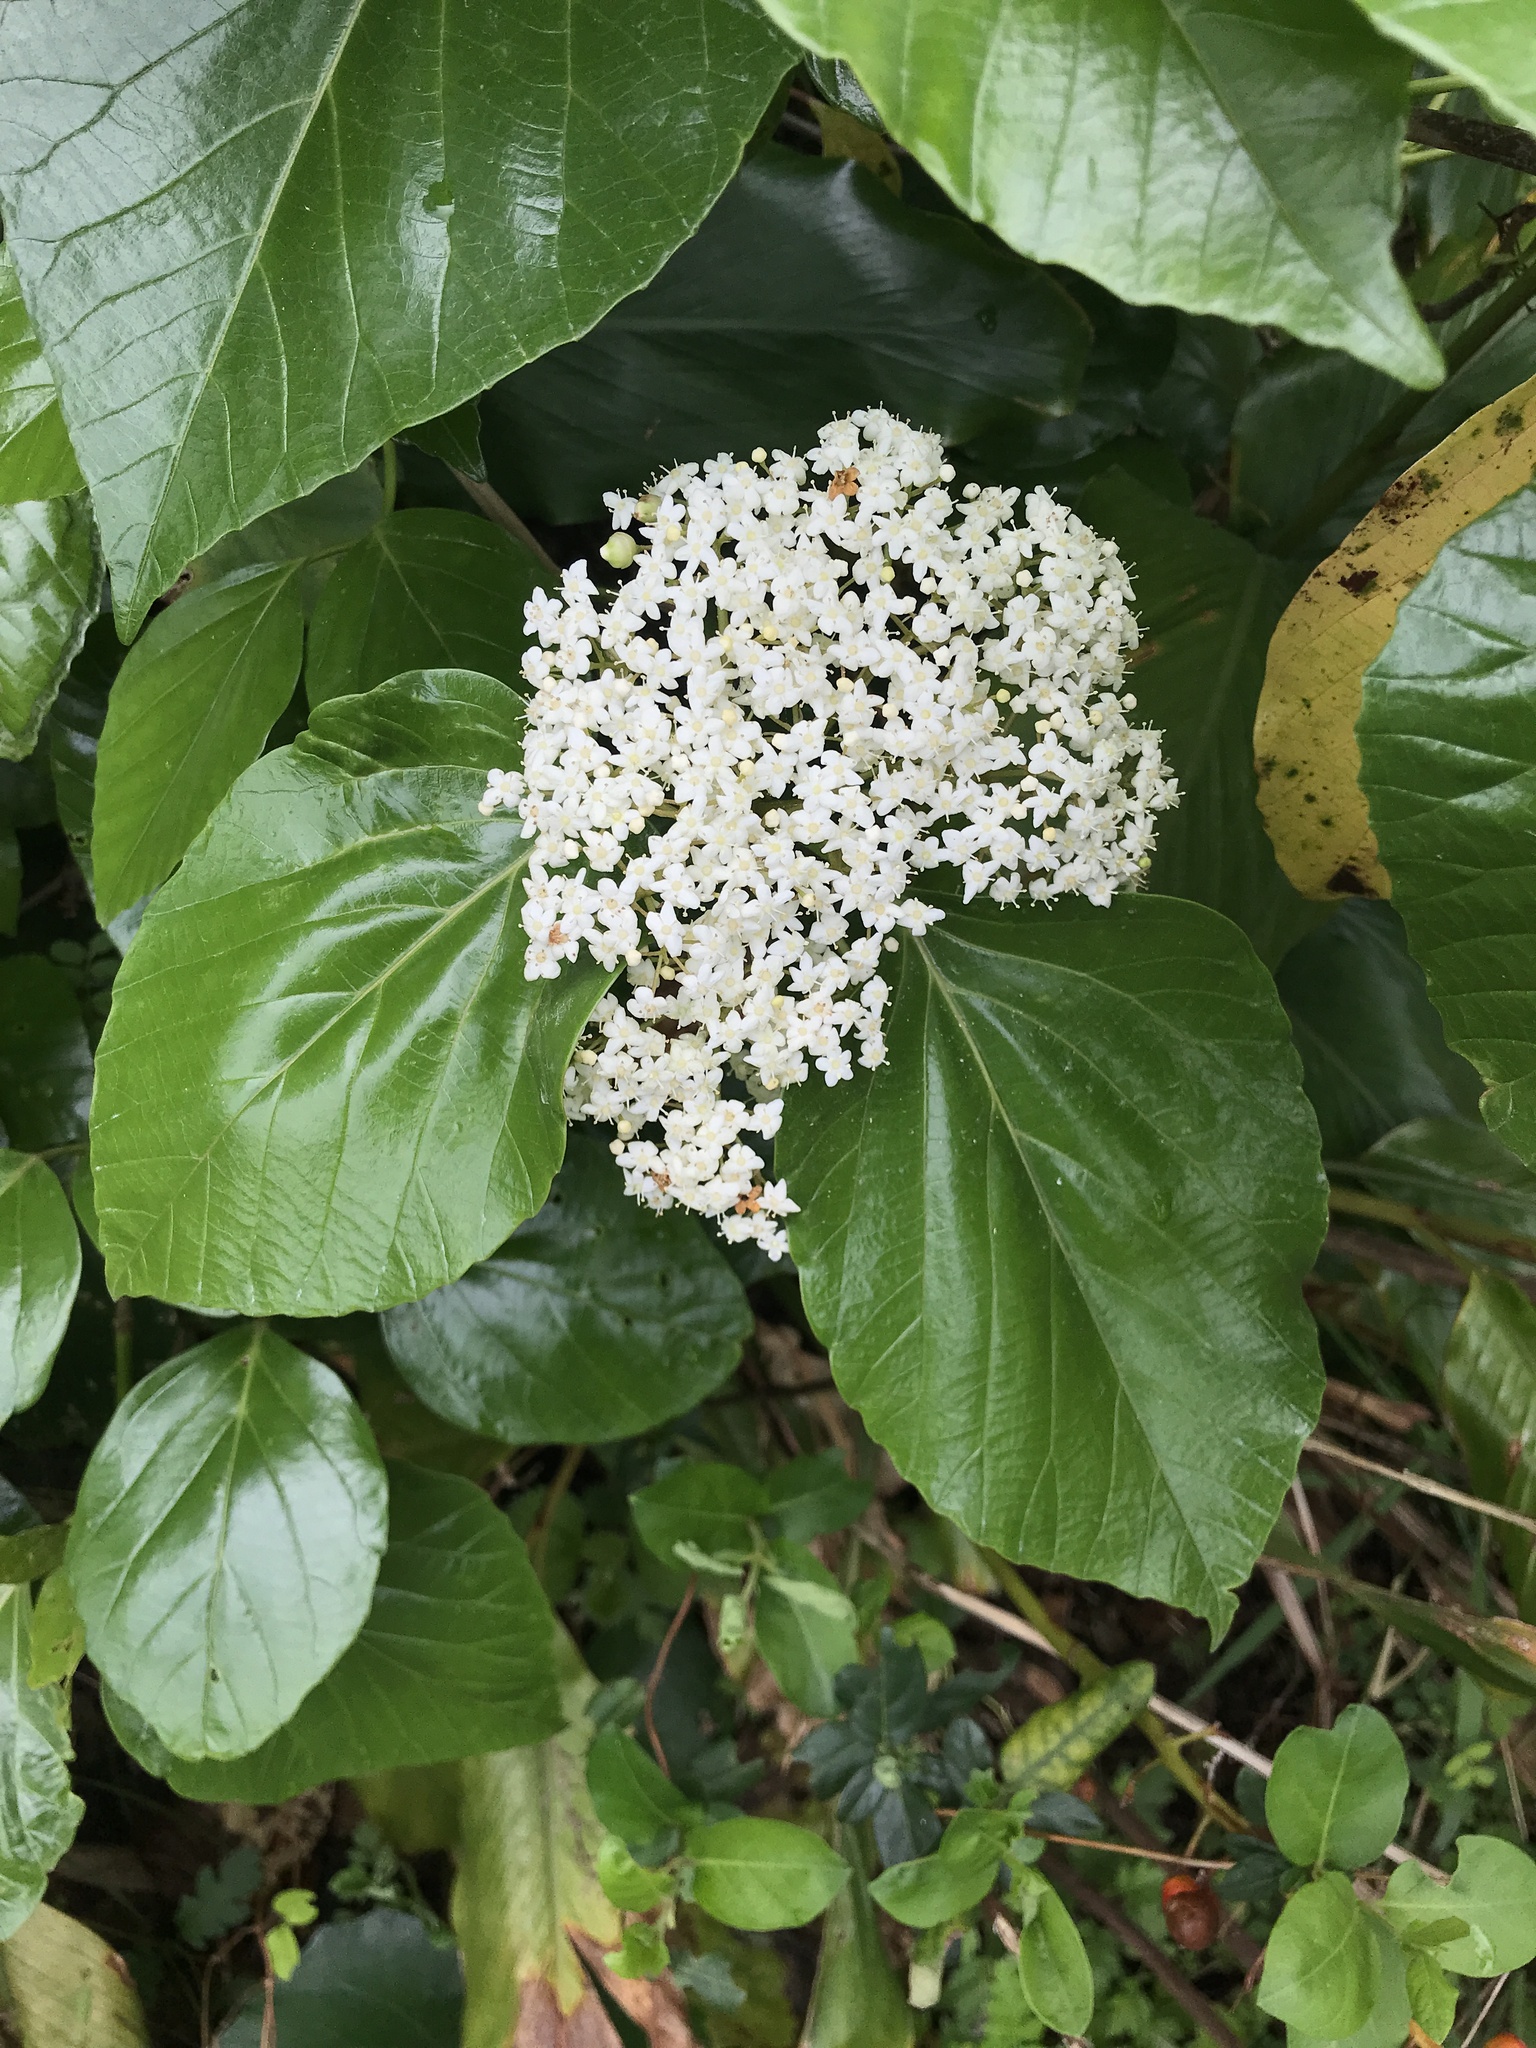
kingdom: Plantae
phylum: Tracheophyta
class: Magnoliopsida
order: Dipsacales
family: Viburnaceae
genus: Viburnum
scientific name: Viburnum japonicum
